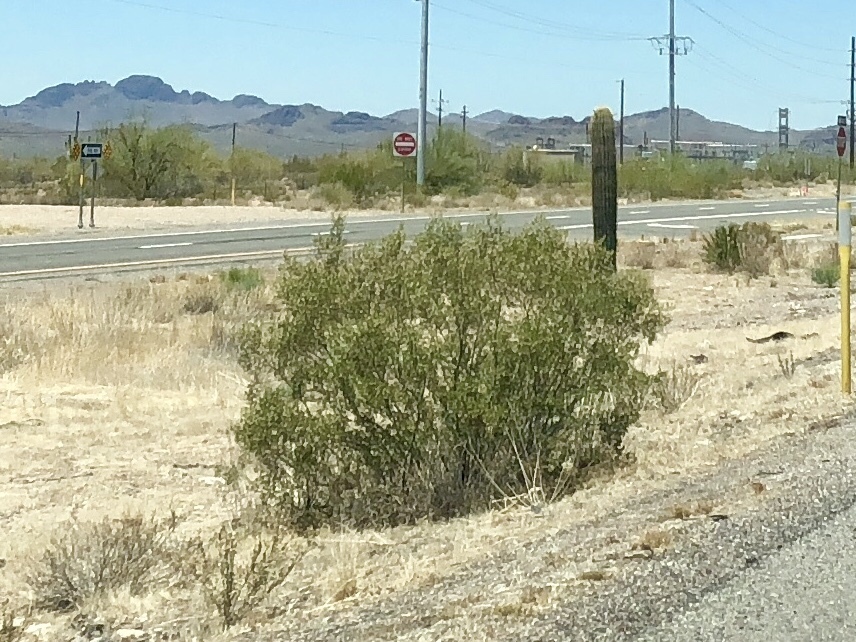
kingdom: Plantae
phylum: Tracheophyta
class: Magnoliopsida
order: Zygophyllales
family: Zygophyllaceae
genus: Larrea
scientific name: Larrea tridentata
